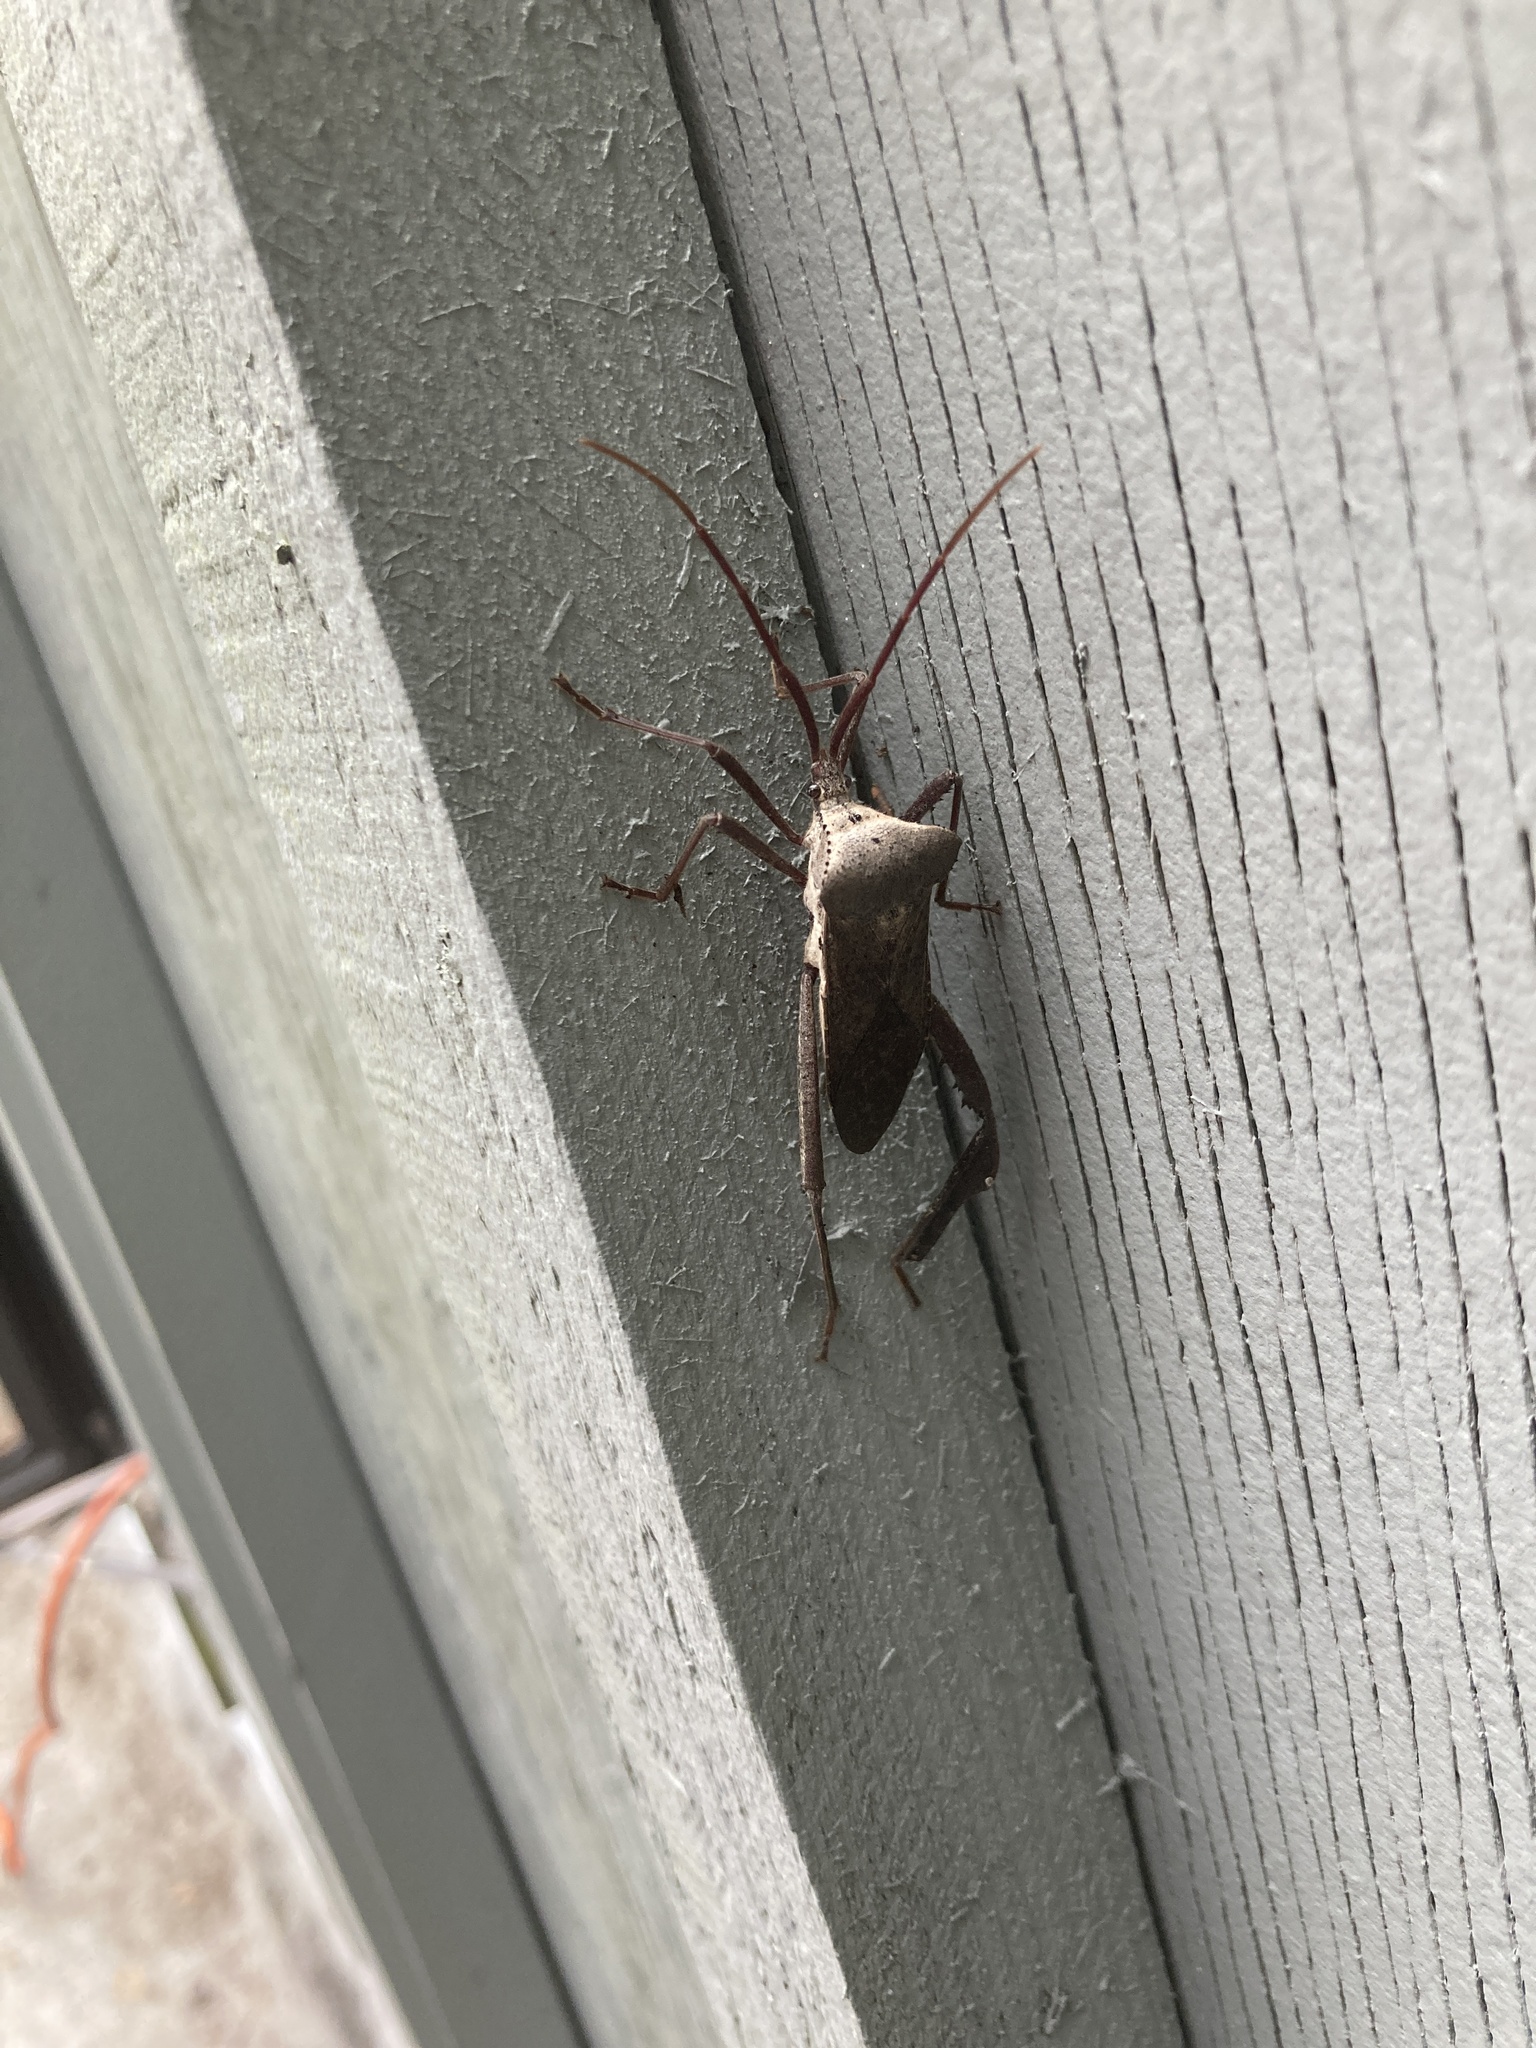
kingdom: Animalia
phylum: Arthropoda
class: Insecta
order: Hemiptera
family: Coreidae
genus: Acanthocephala
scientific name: Acanthocephala declivis
